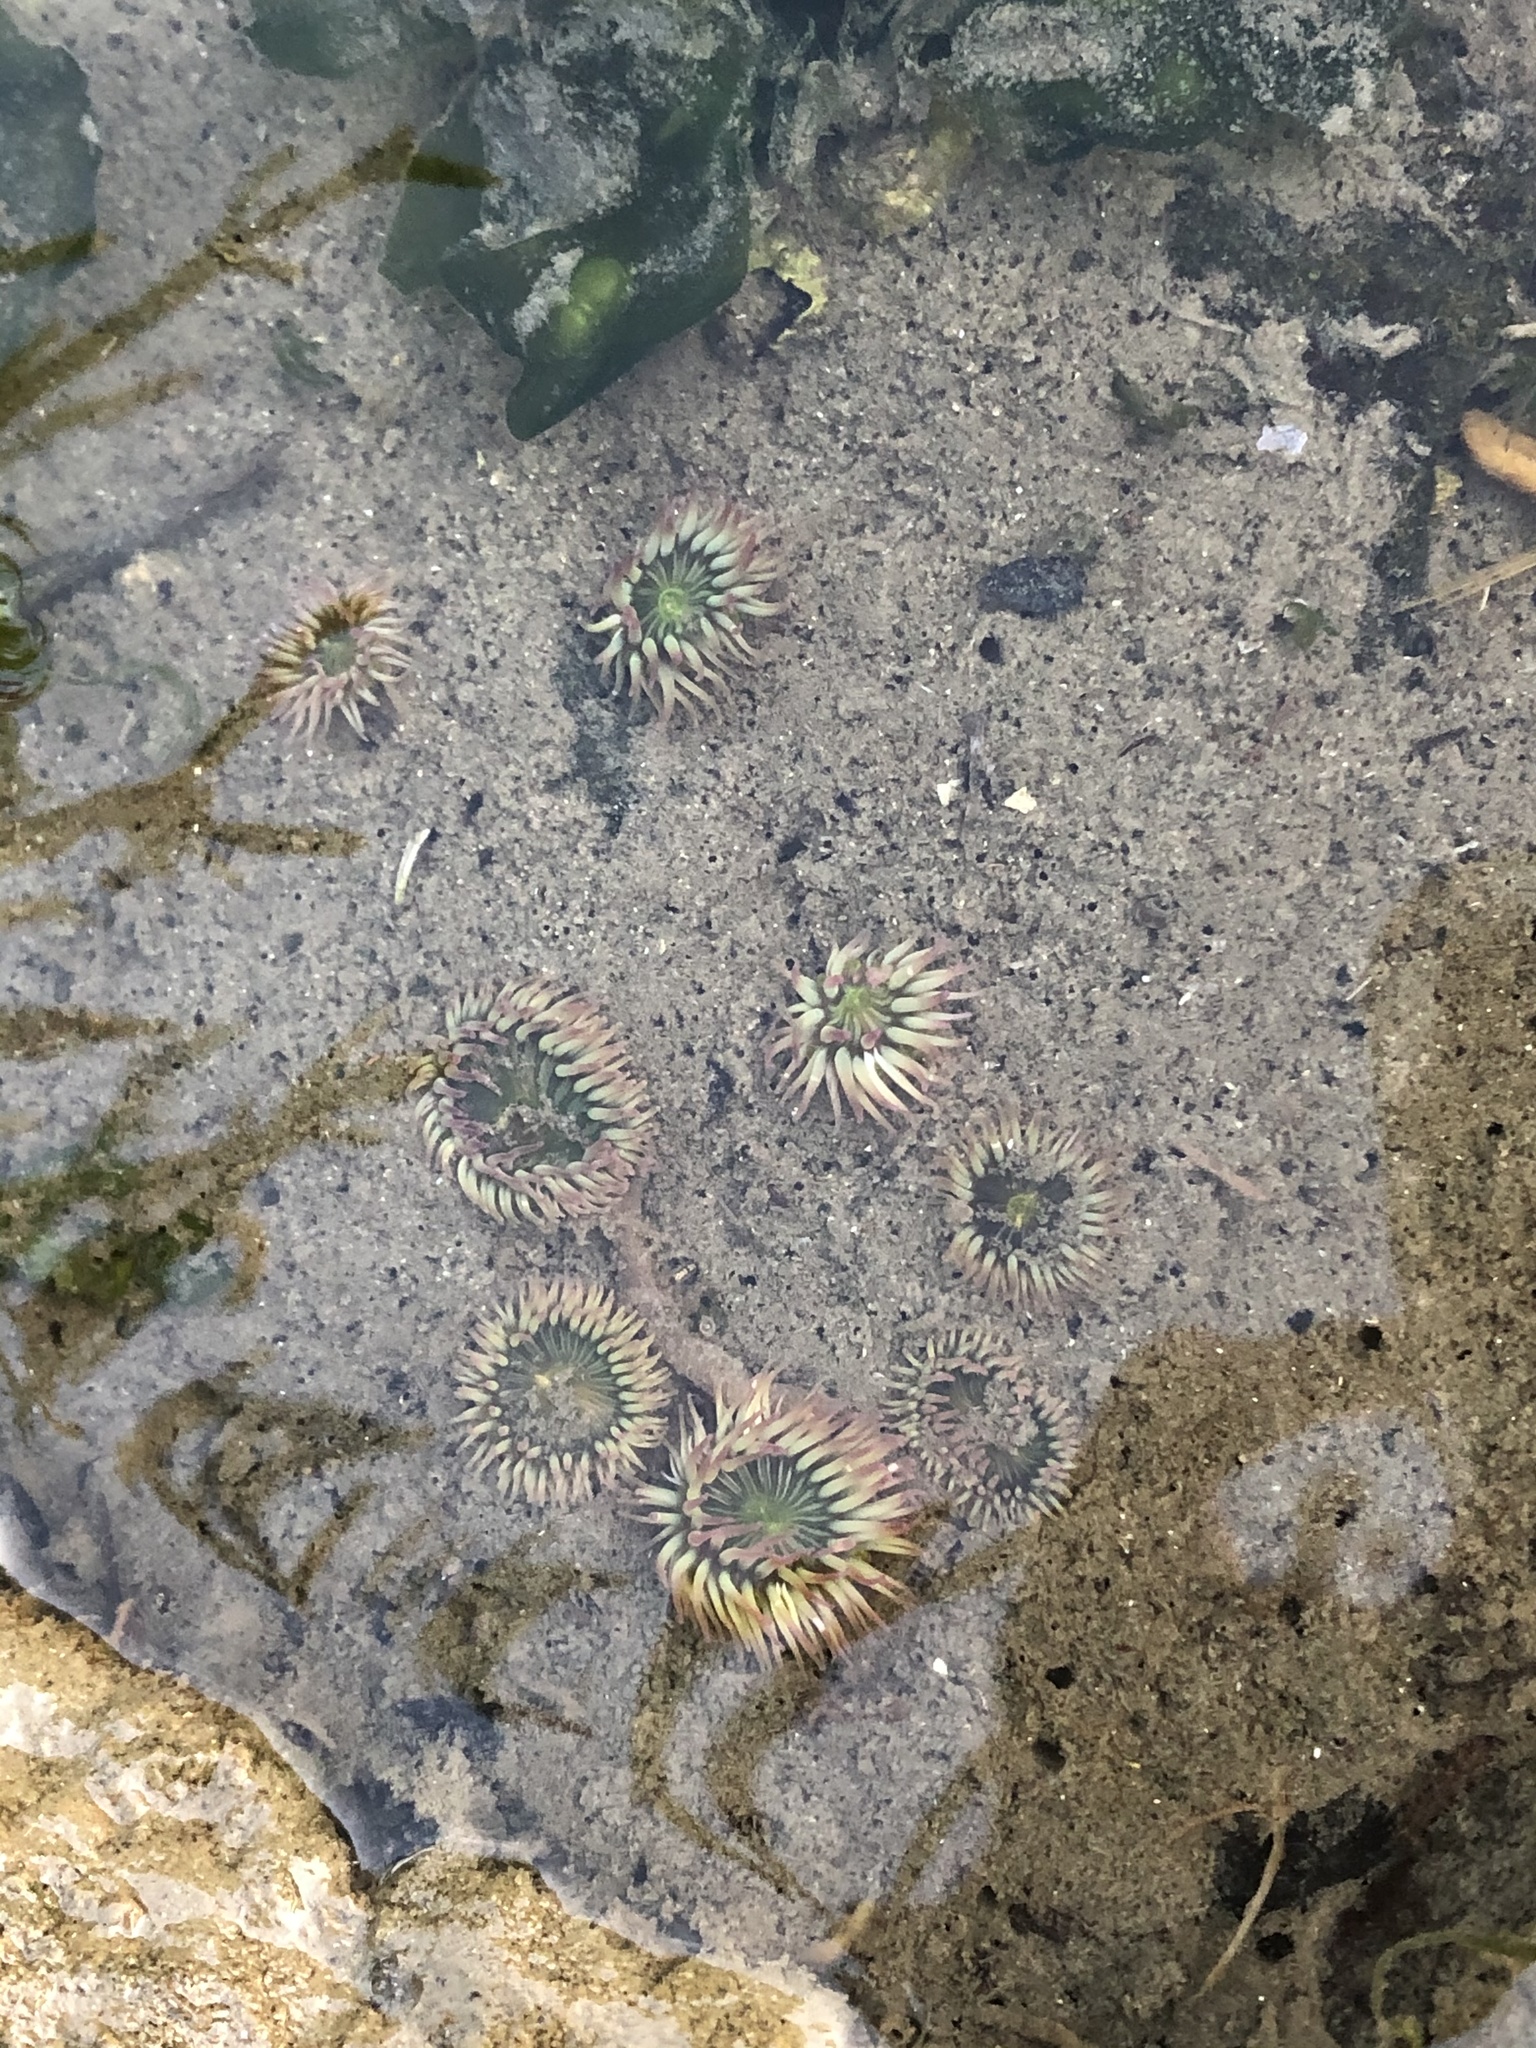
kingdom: Animalia
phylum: Cnidaria
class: Anthozoa
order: Actiniaria
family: Actiniidae
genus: Anthopleura
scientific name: Anthopleura elegantissima
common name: Clonal anemone
